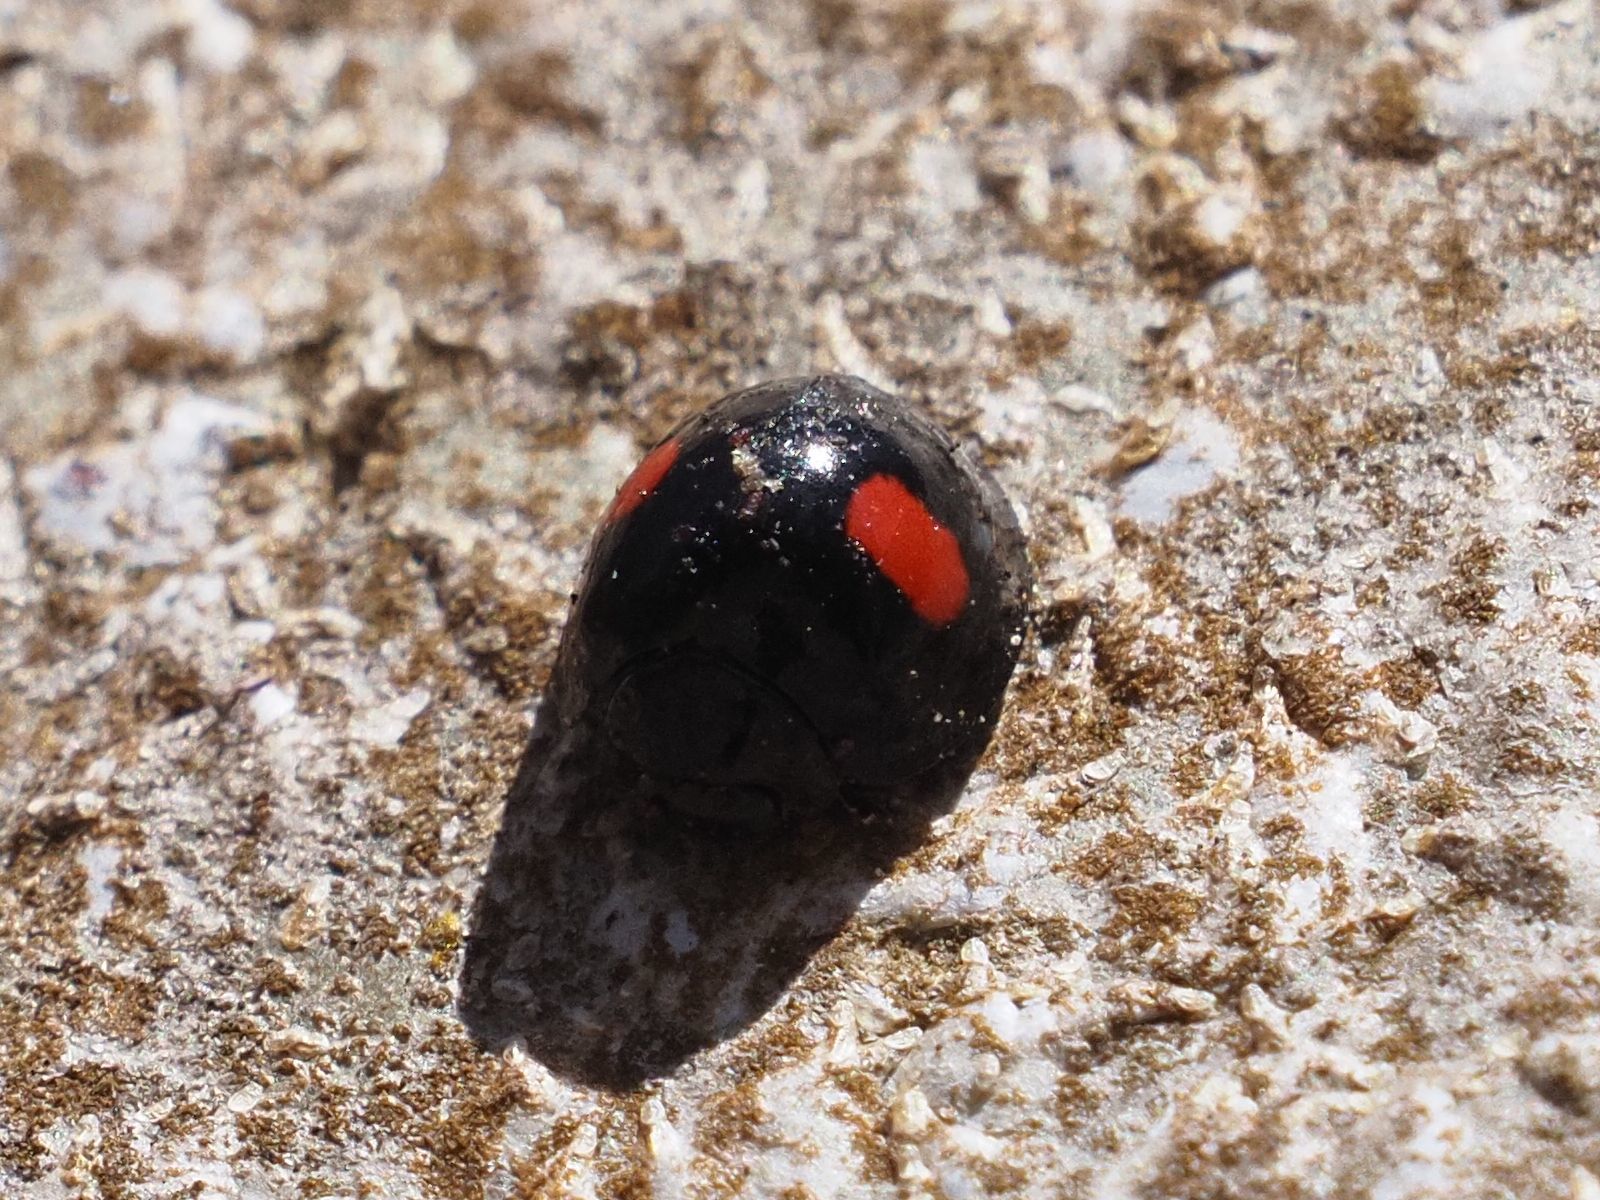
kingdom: Animalia
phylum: Arthropoda
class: Insecta
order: Coleoptera
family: Coccinellidae
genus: Chilocorus
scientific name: Chilocorus renipustulatus
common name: Kidney-spot ladybird
